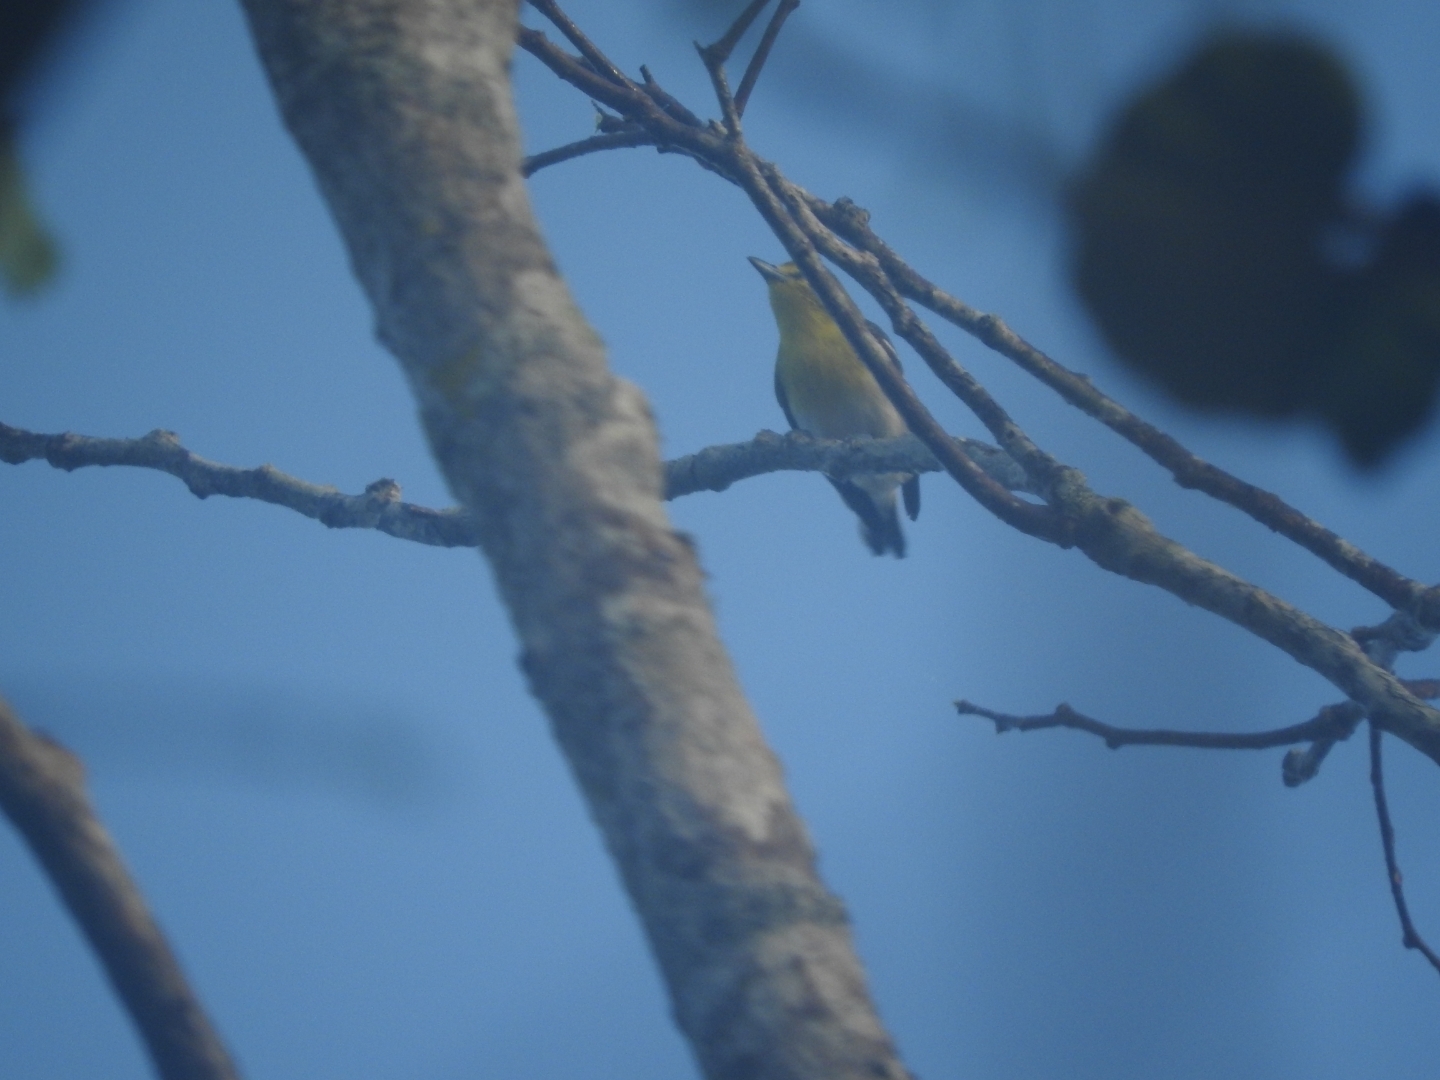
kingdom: Animalia
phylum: Chordata
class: Aves
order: Passeriformes
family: Vireonidae
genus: Vireo
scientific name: Vireo flavifrons
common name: Yellow-throated vireo
